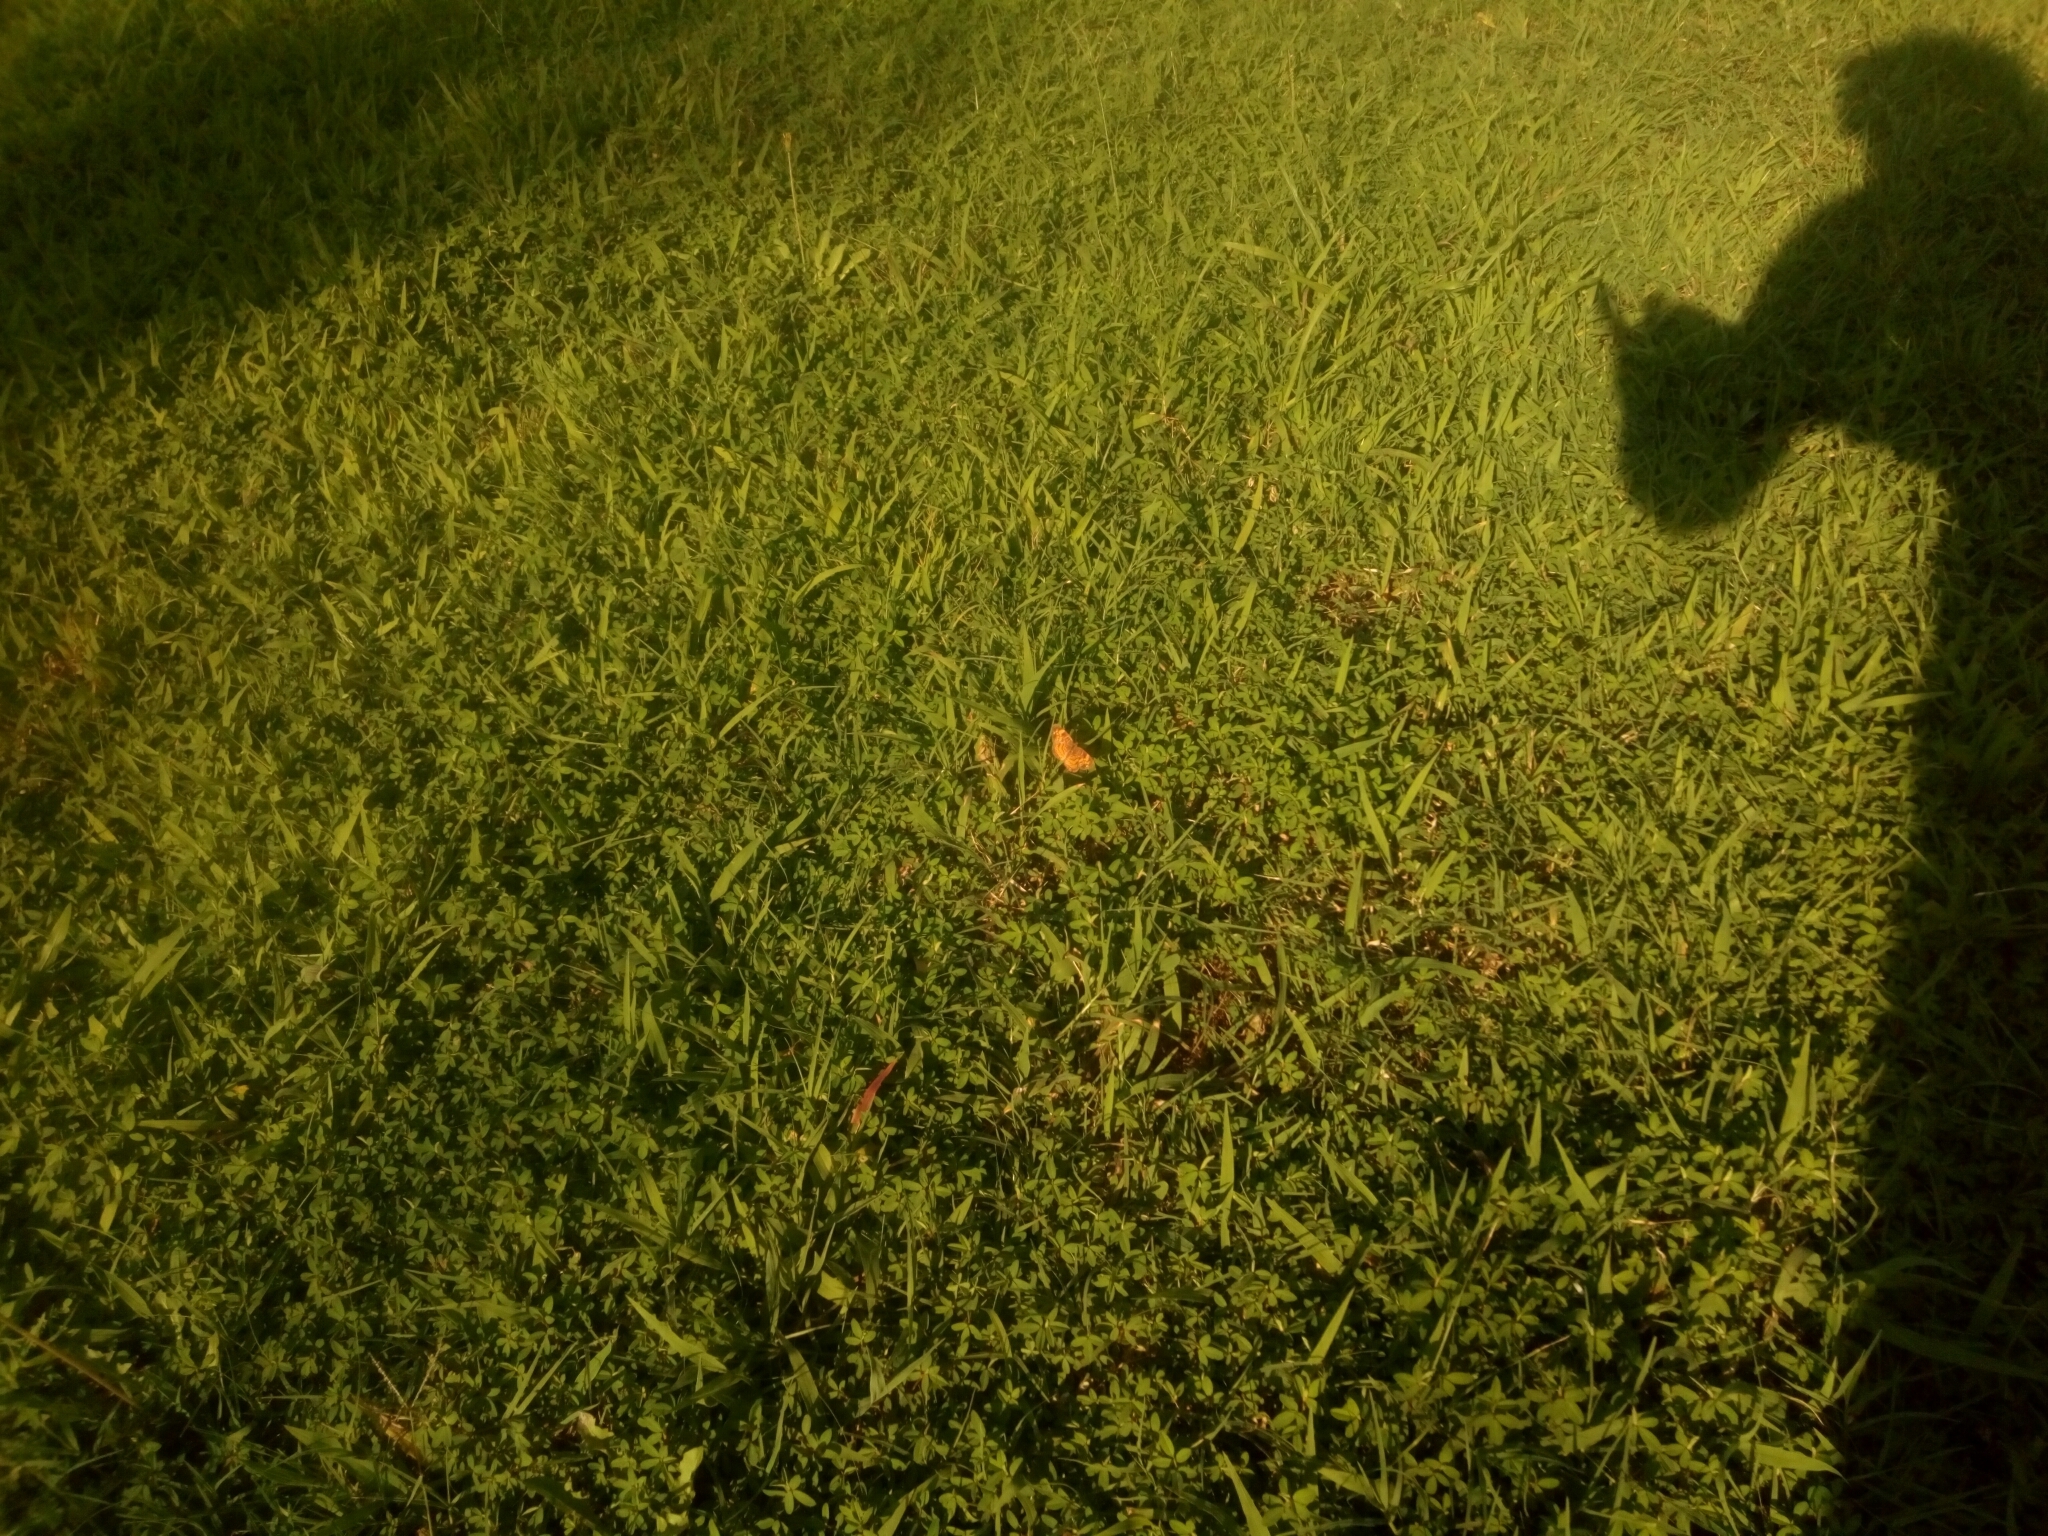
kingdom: Animalia
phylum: Arthropoda
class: Insecta
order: Lepidoptera
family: Nymphalidae
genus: Phyciodes
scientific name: Phyciodes tharos
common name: Pearl crescent
